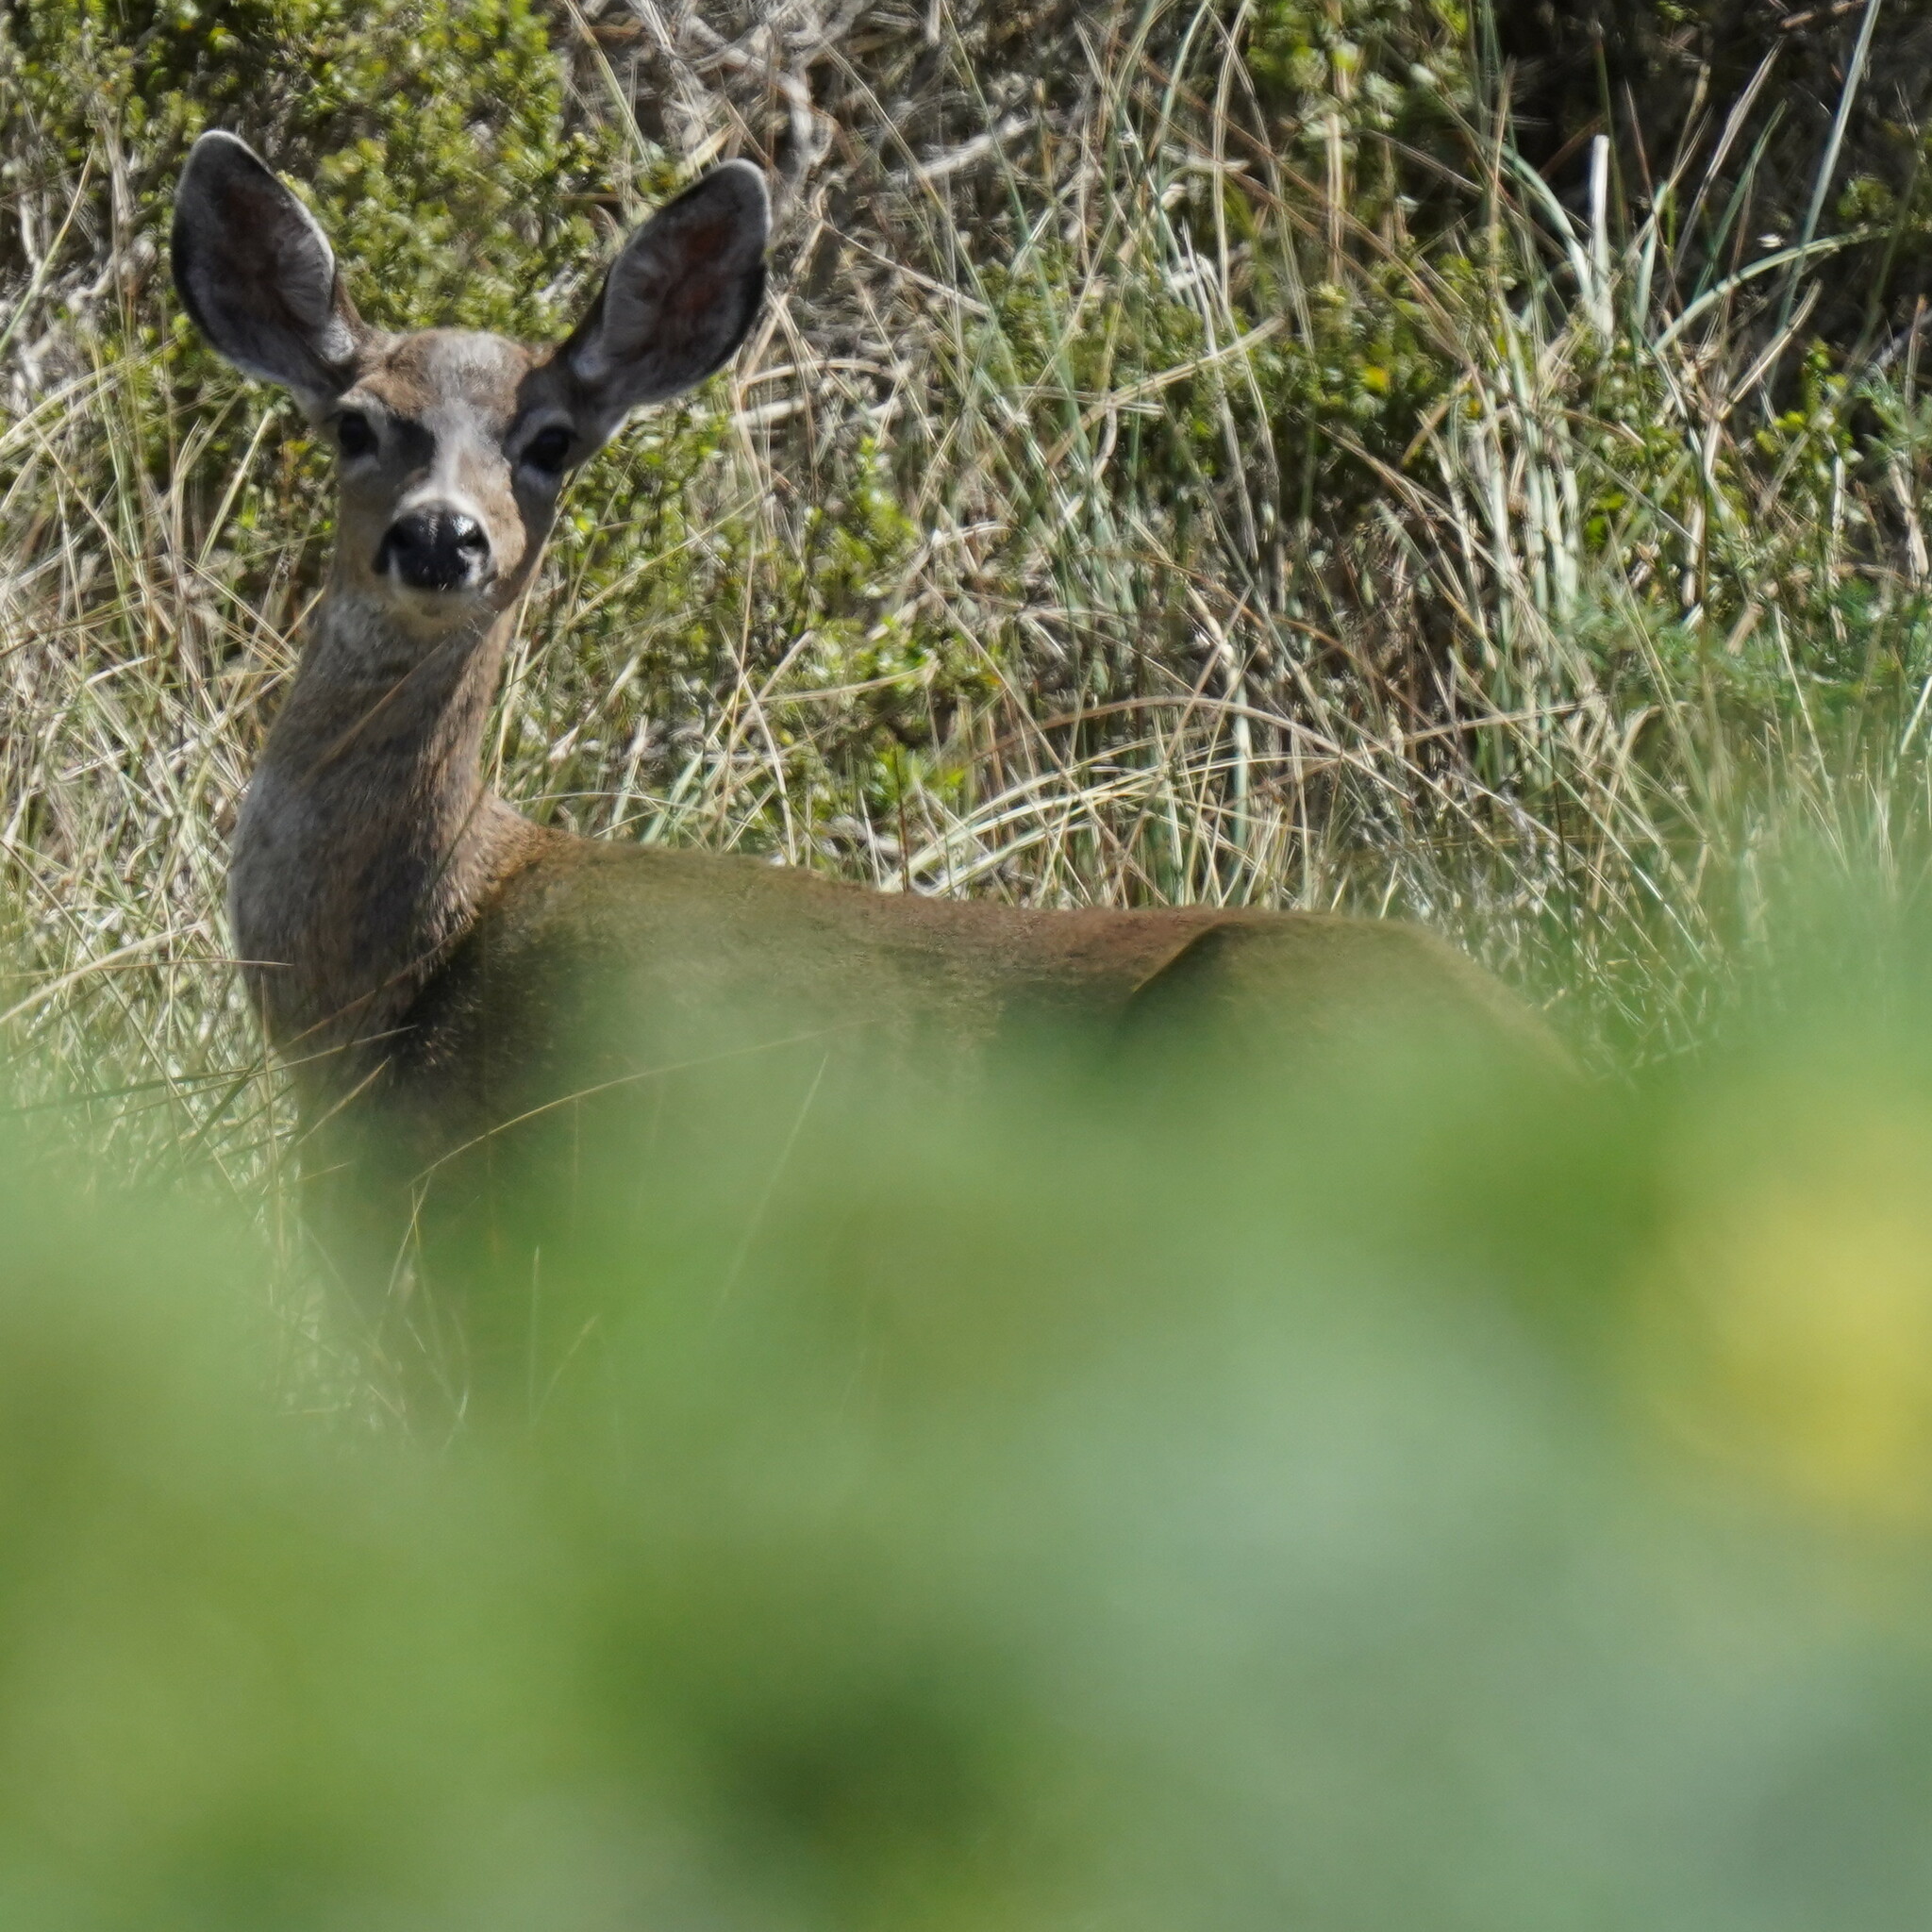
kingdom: Animalia
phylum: Chordata
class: Mammalia
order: Artiodactyla
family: Cervidae
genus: Odocoileus
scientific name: Odocoileus hemionus
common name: Mule deer
